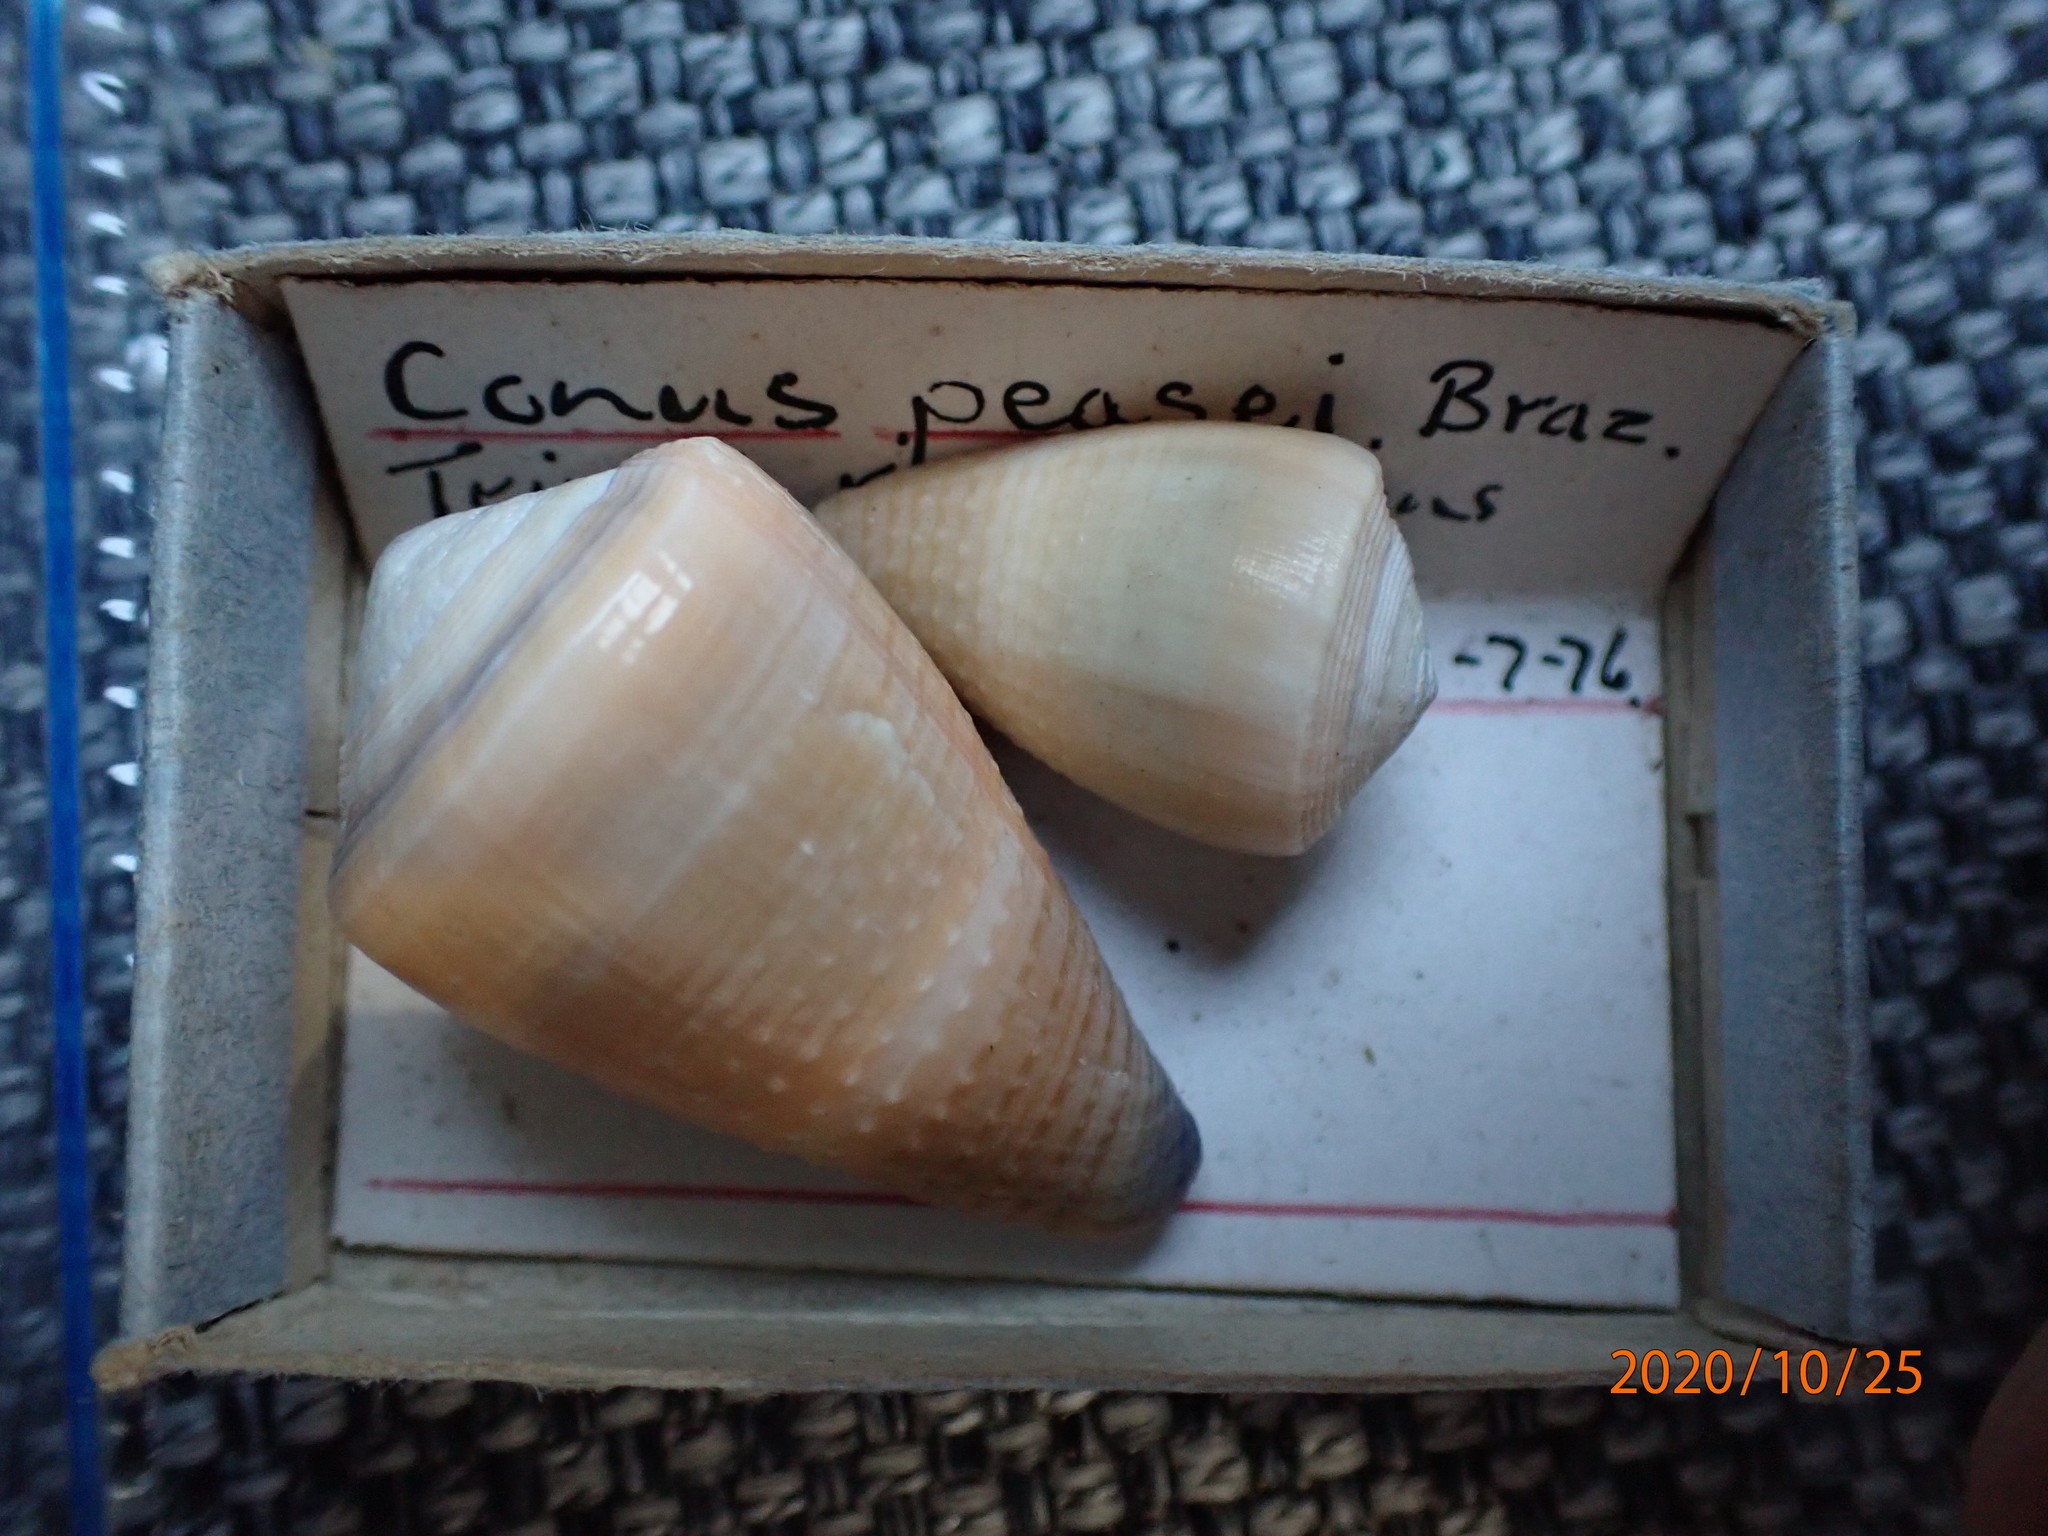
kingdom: Animalia
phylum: Mollusca
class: Gastropoda
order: Neogastropoda
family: Conidae
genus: Conus
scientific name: Conus frigidus
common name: Frigid cone
